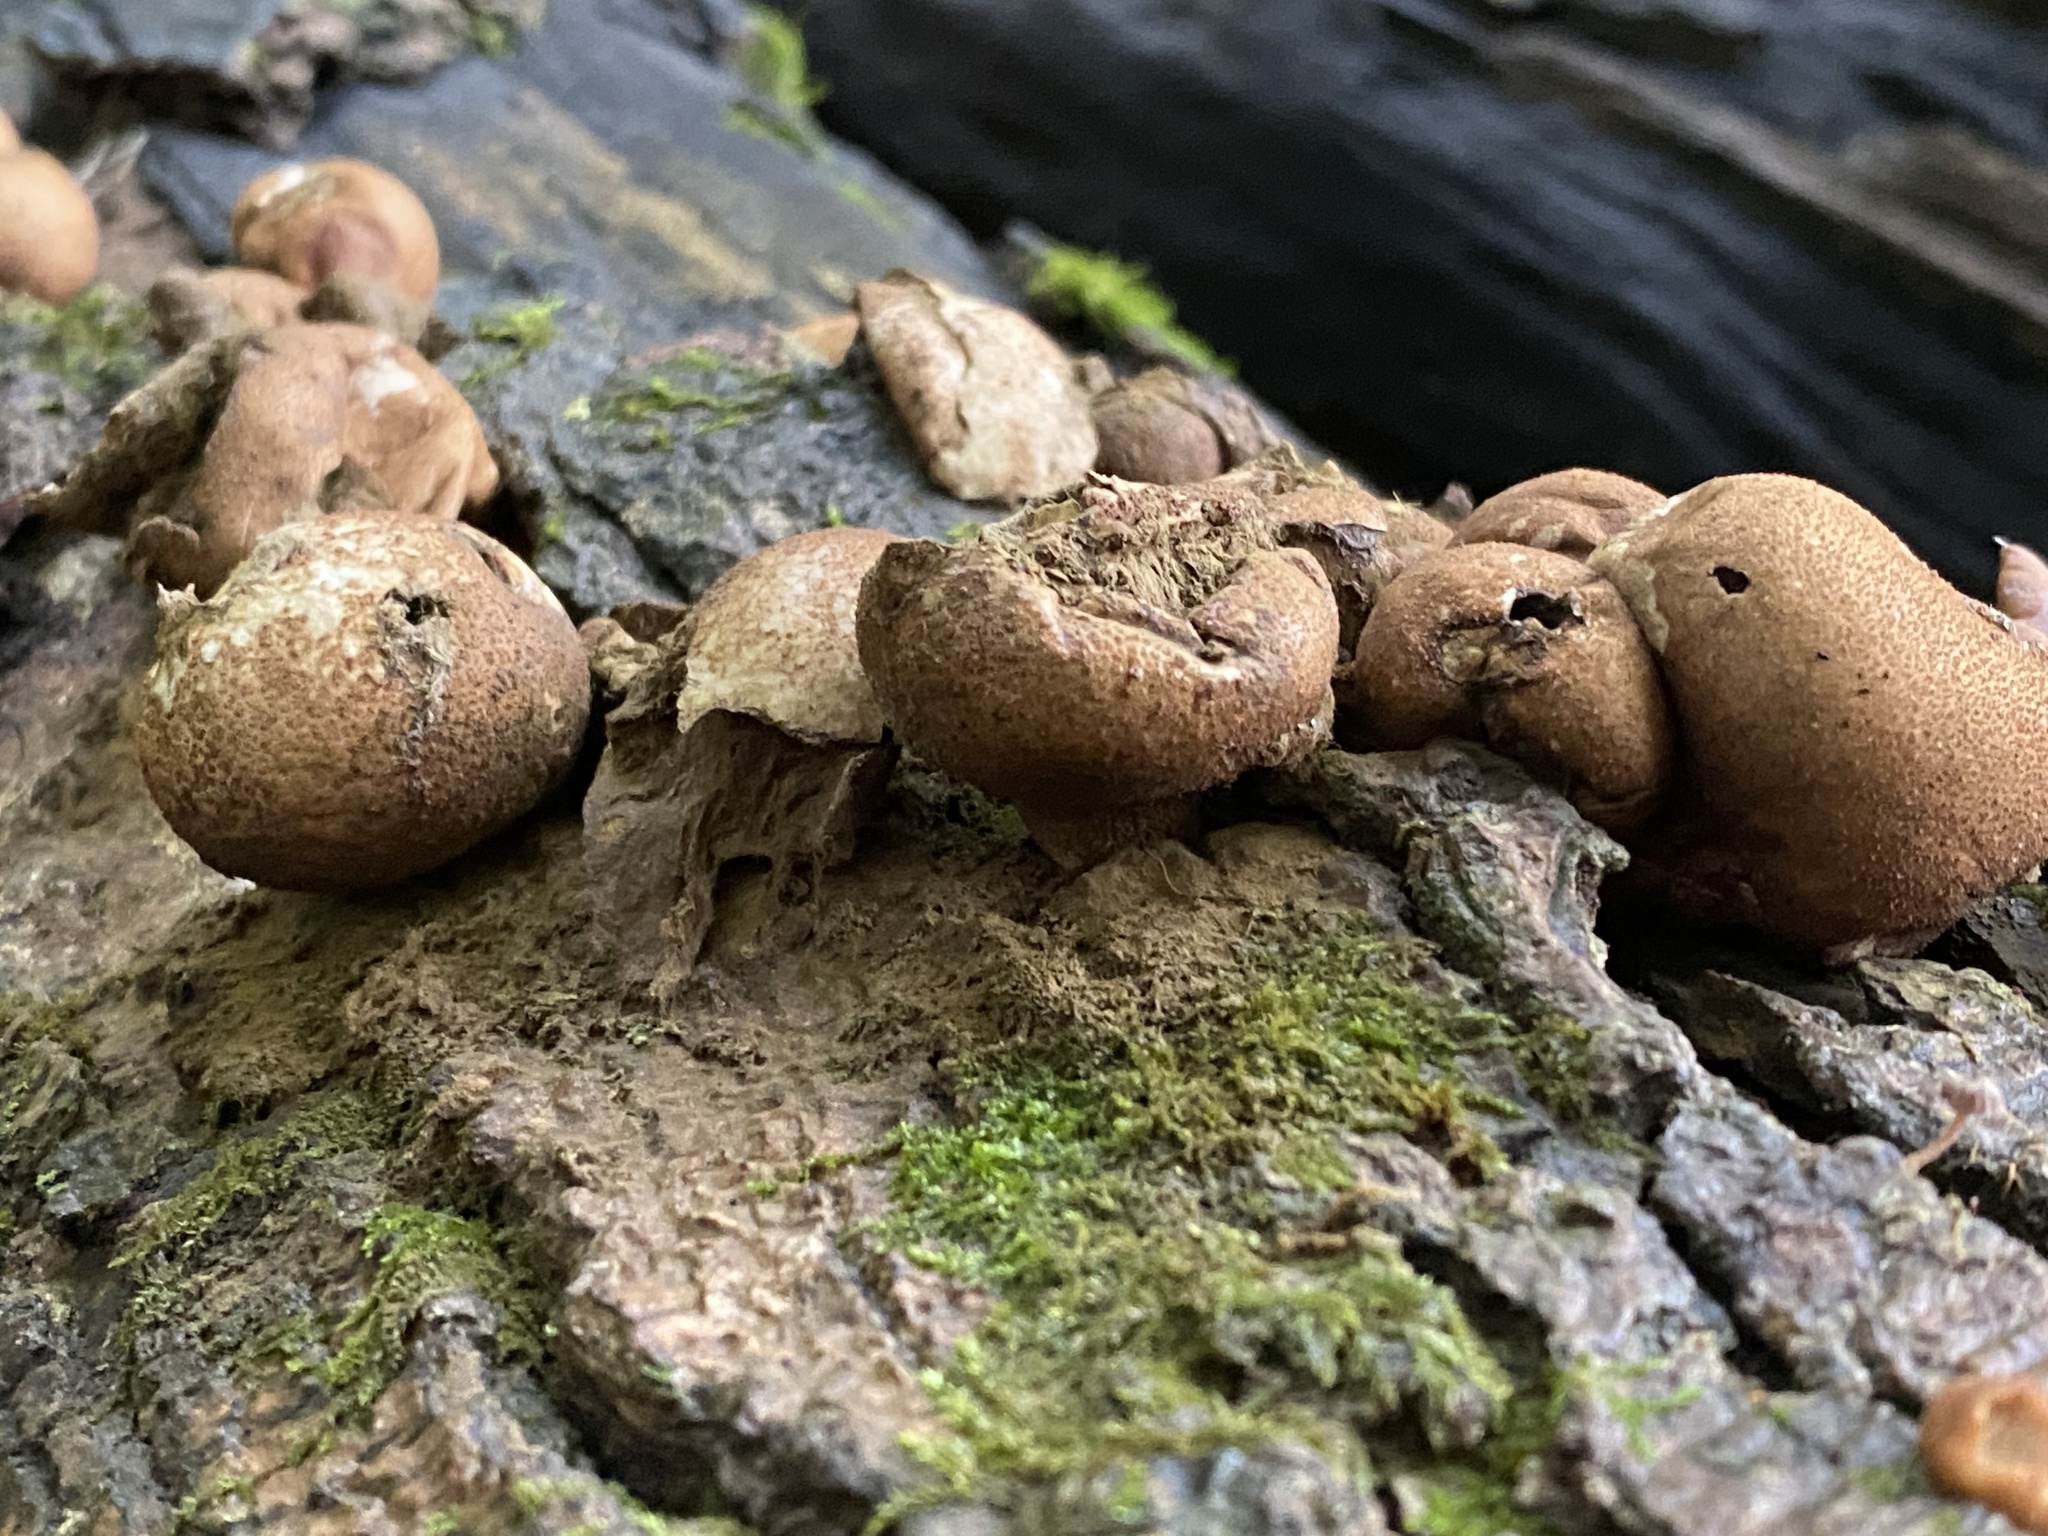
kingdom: Fungi
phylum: Basidiomycota
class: Agaricomycetes
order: Agaricales
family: Lycoperdaceae
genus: Apioperdon
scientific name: Apioperdon pyriforme
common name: Pear-shaped puffball
